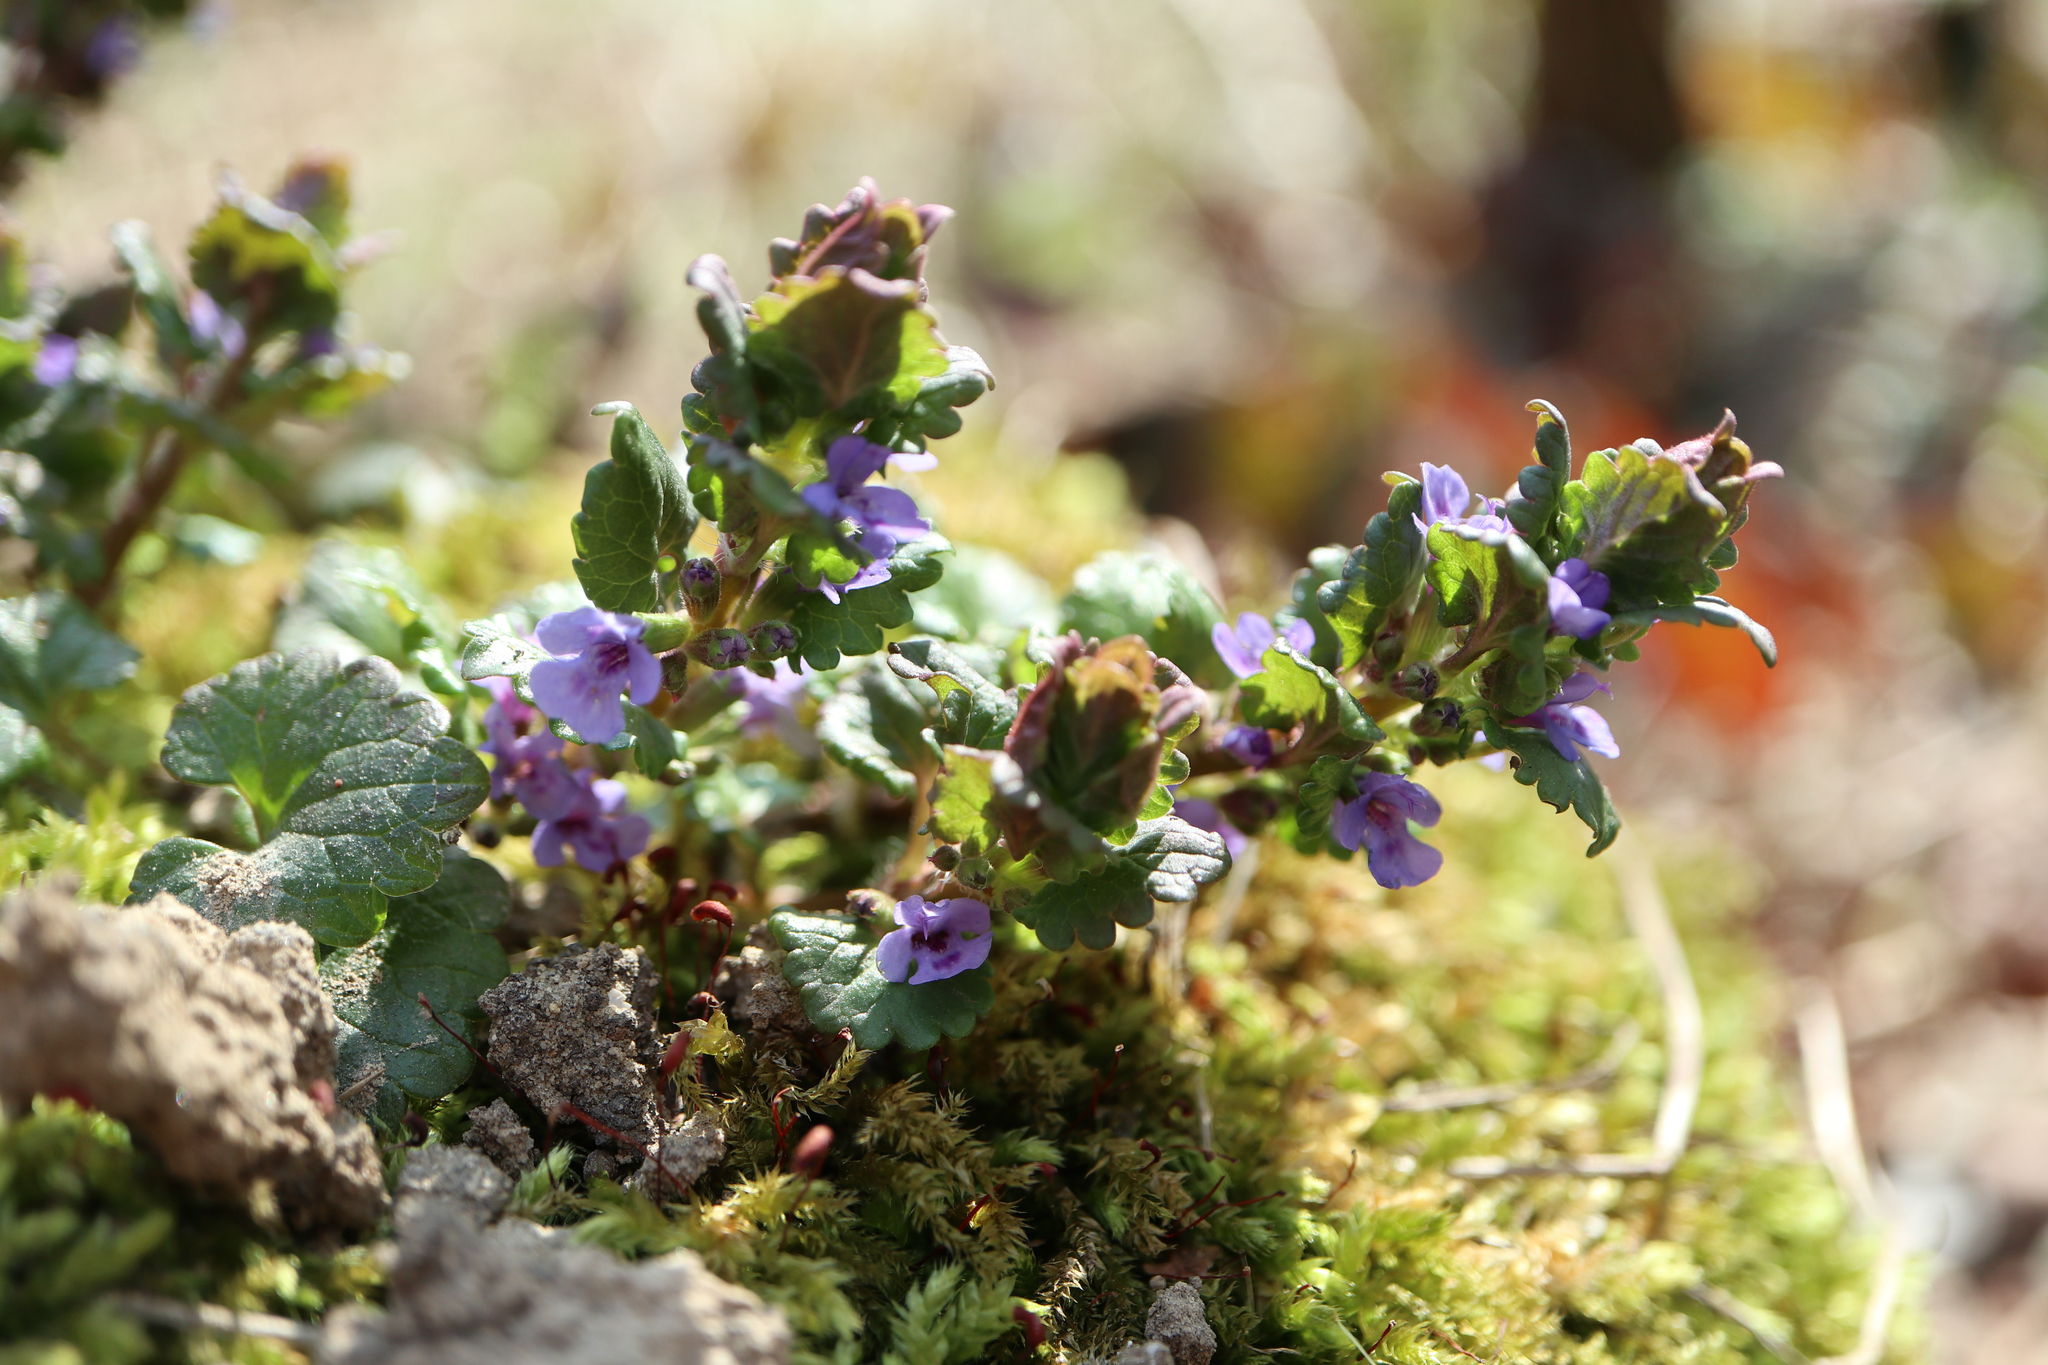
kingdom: Plantae
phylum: Tracheophyta
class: Magnoliopsida
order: Lamiales
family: Lamiaceae
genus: Glechoma
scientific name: Glechoma hederacea
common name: Ground ivy
